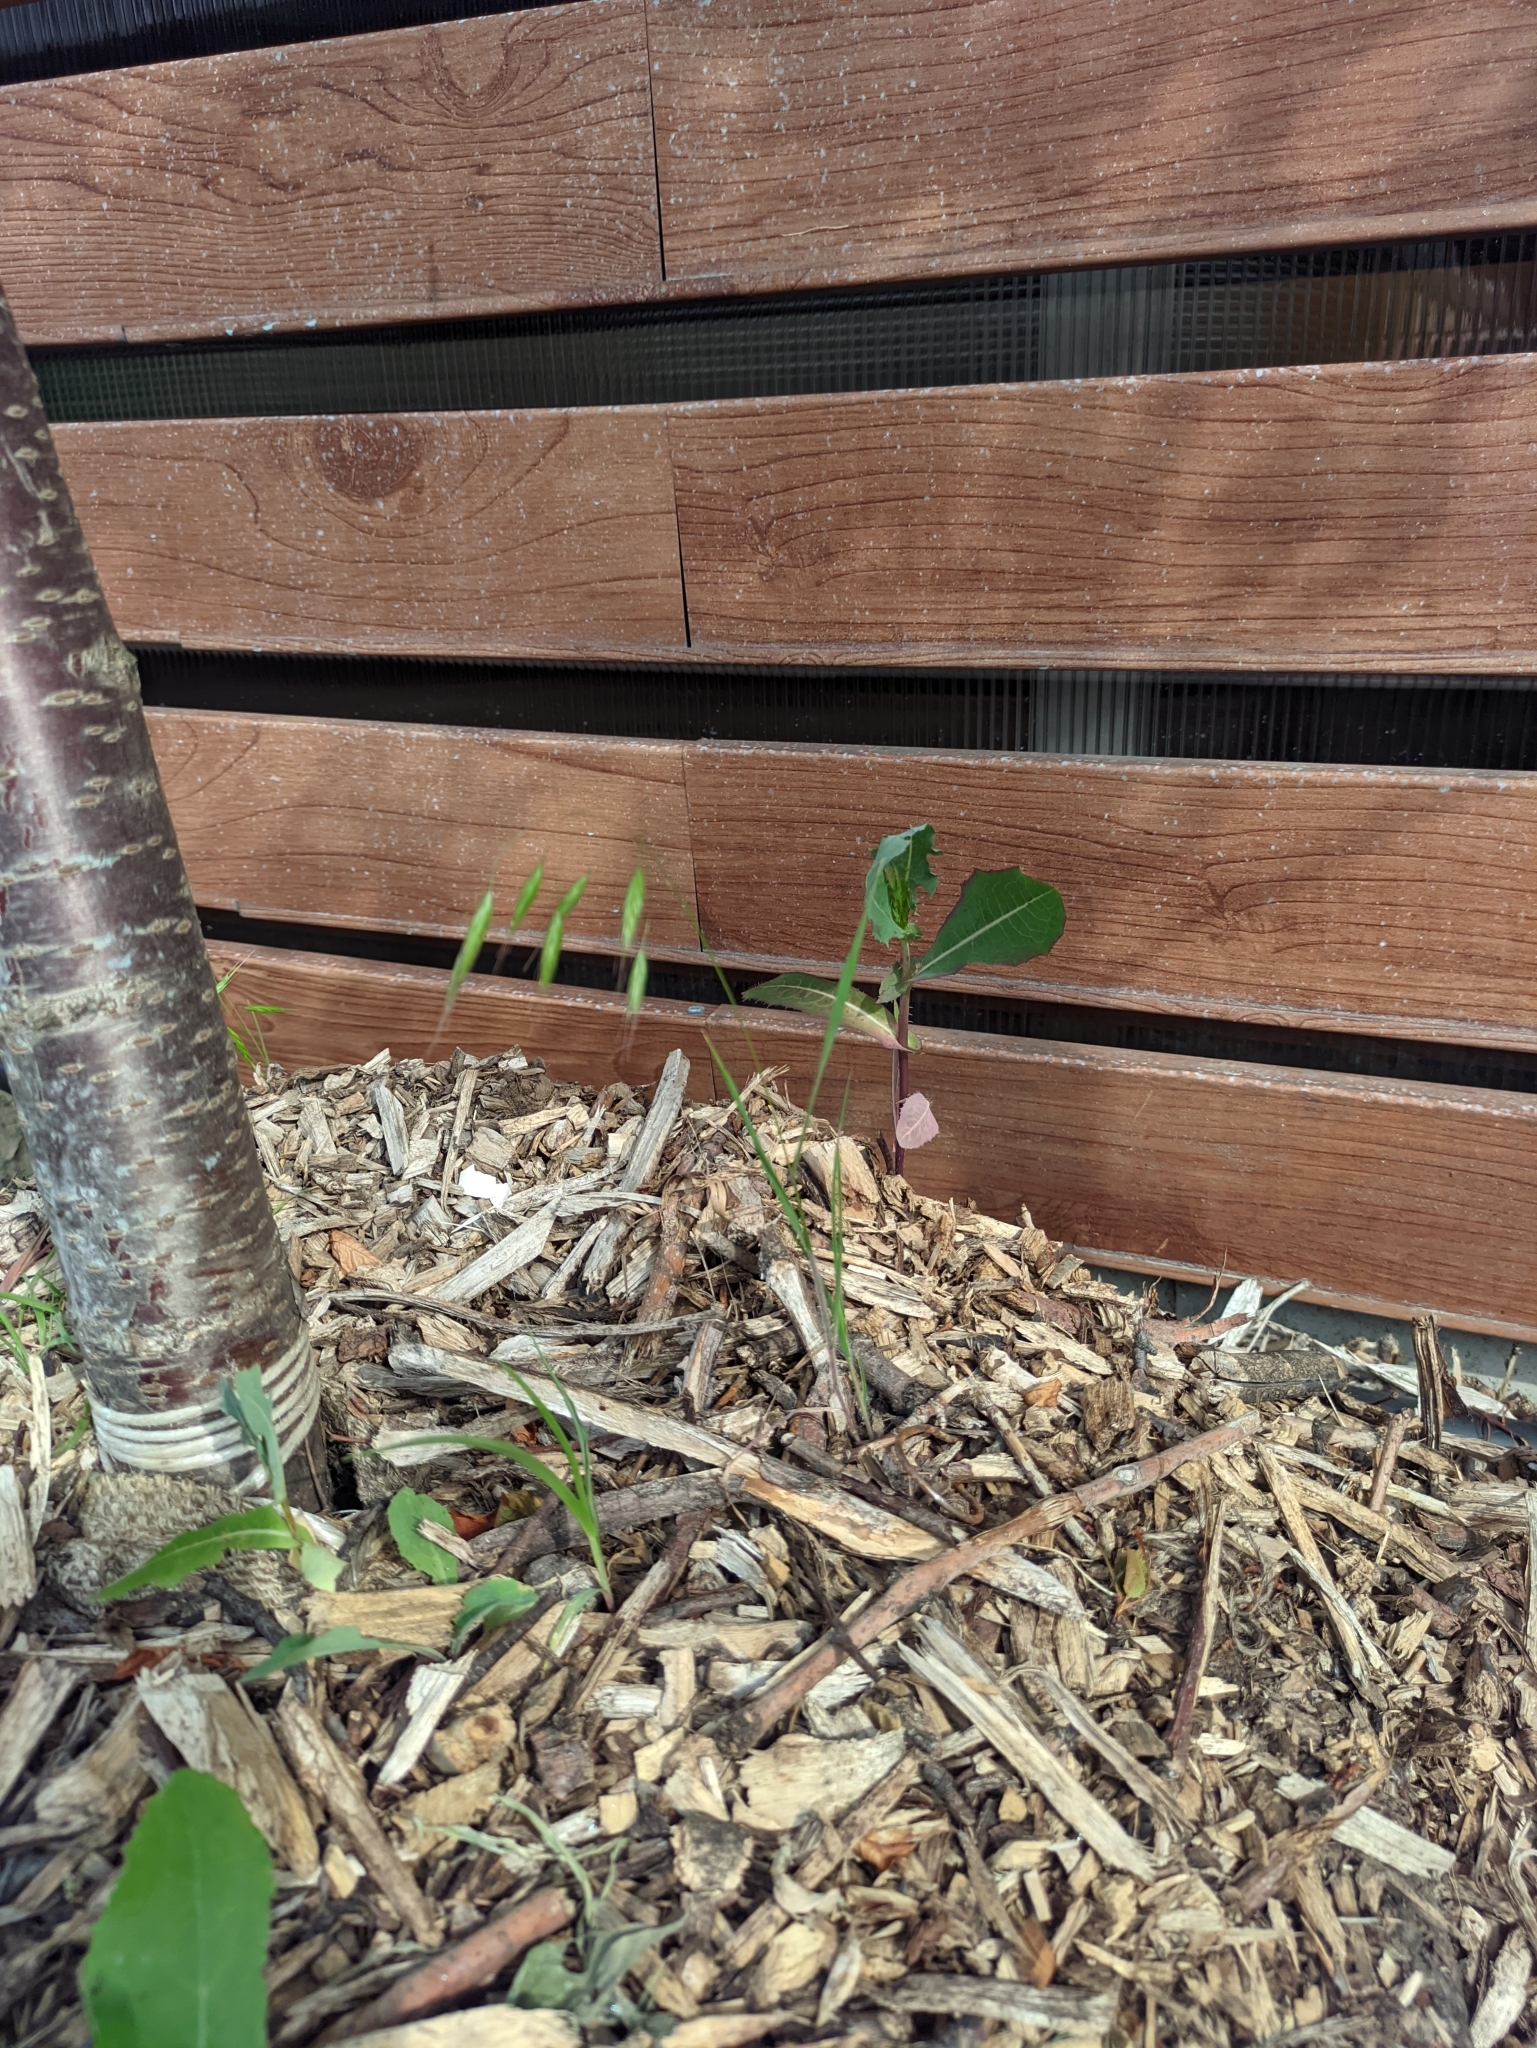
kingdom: Plantae
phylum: Tracheophyta
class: Liliopsida
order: Poales
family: Poaceae
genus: Bromus
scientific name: Bromus squarrosus
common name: Corn brome
